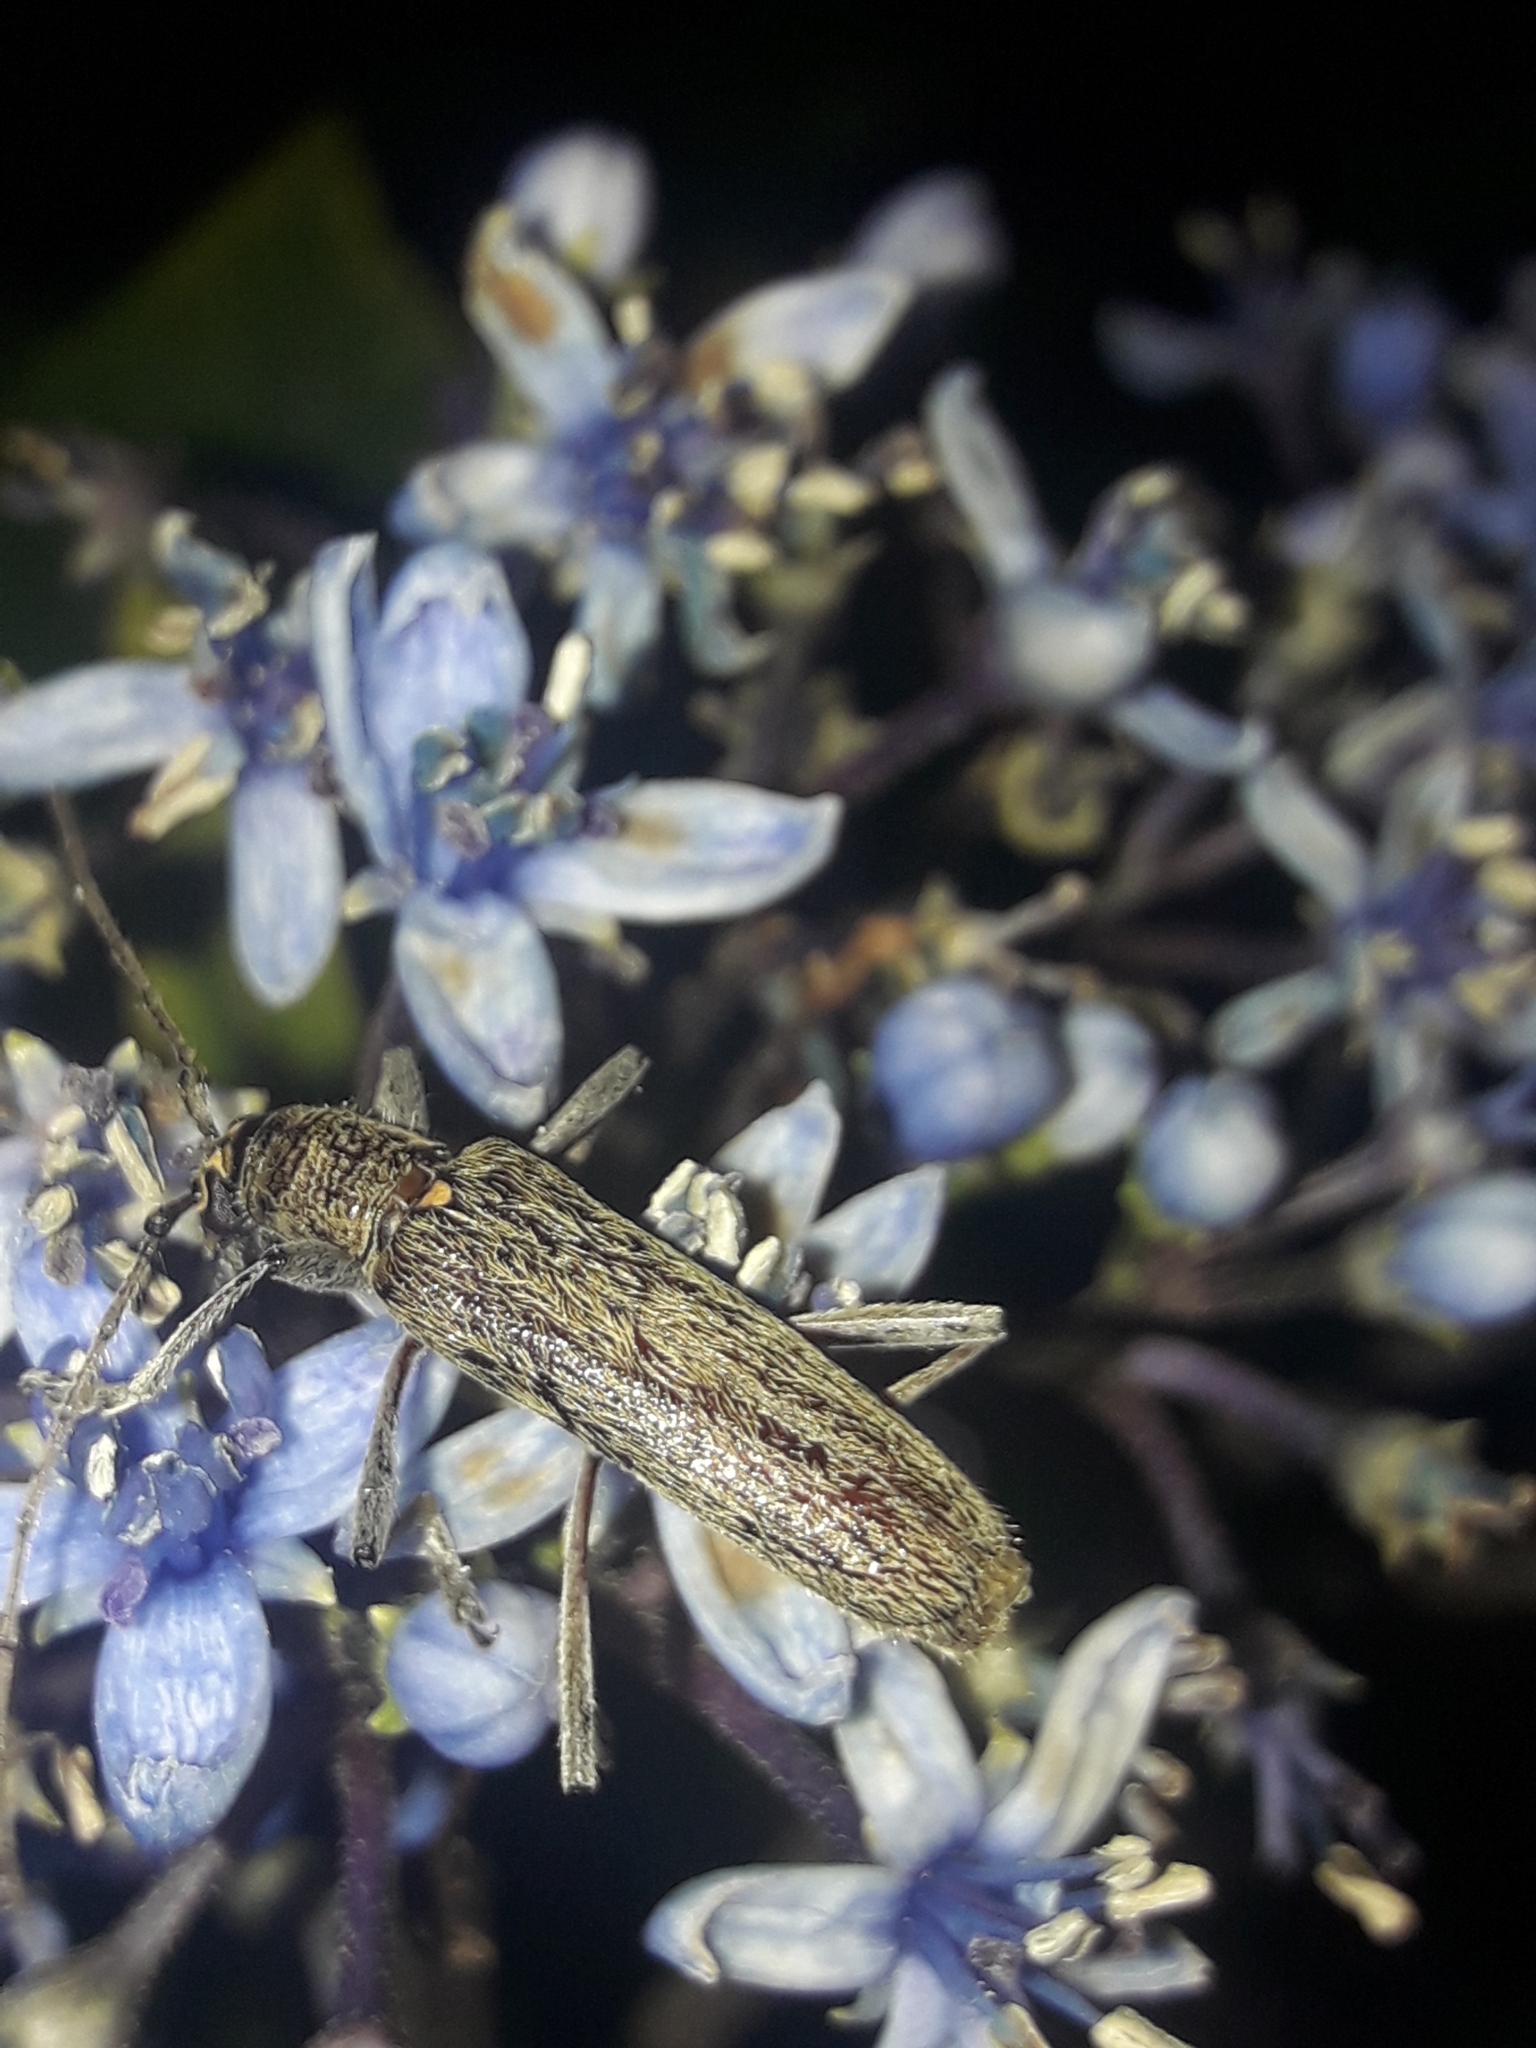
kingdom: Animalia
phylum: Arthropoda
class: Insecta
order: Coleoptera
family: Cerambycidae
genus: Oemona
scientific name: Oemona hirta
